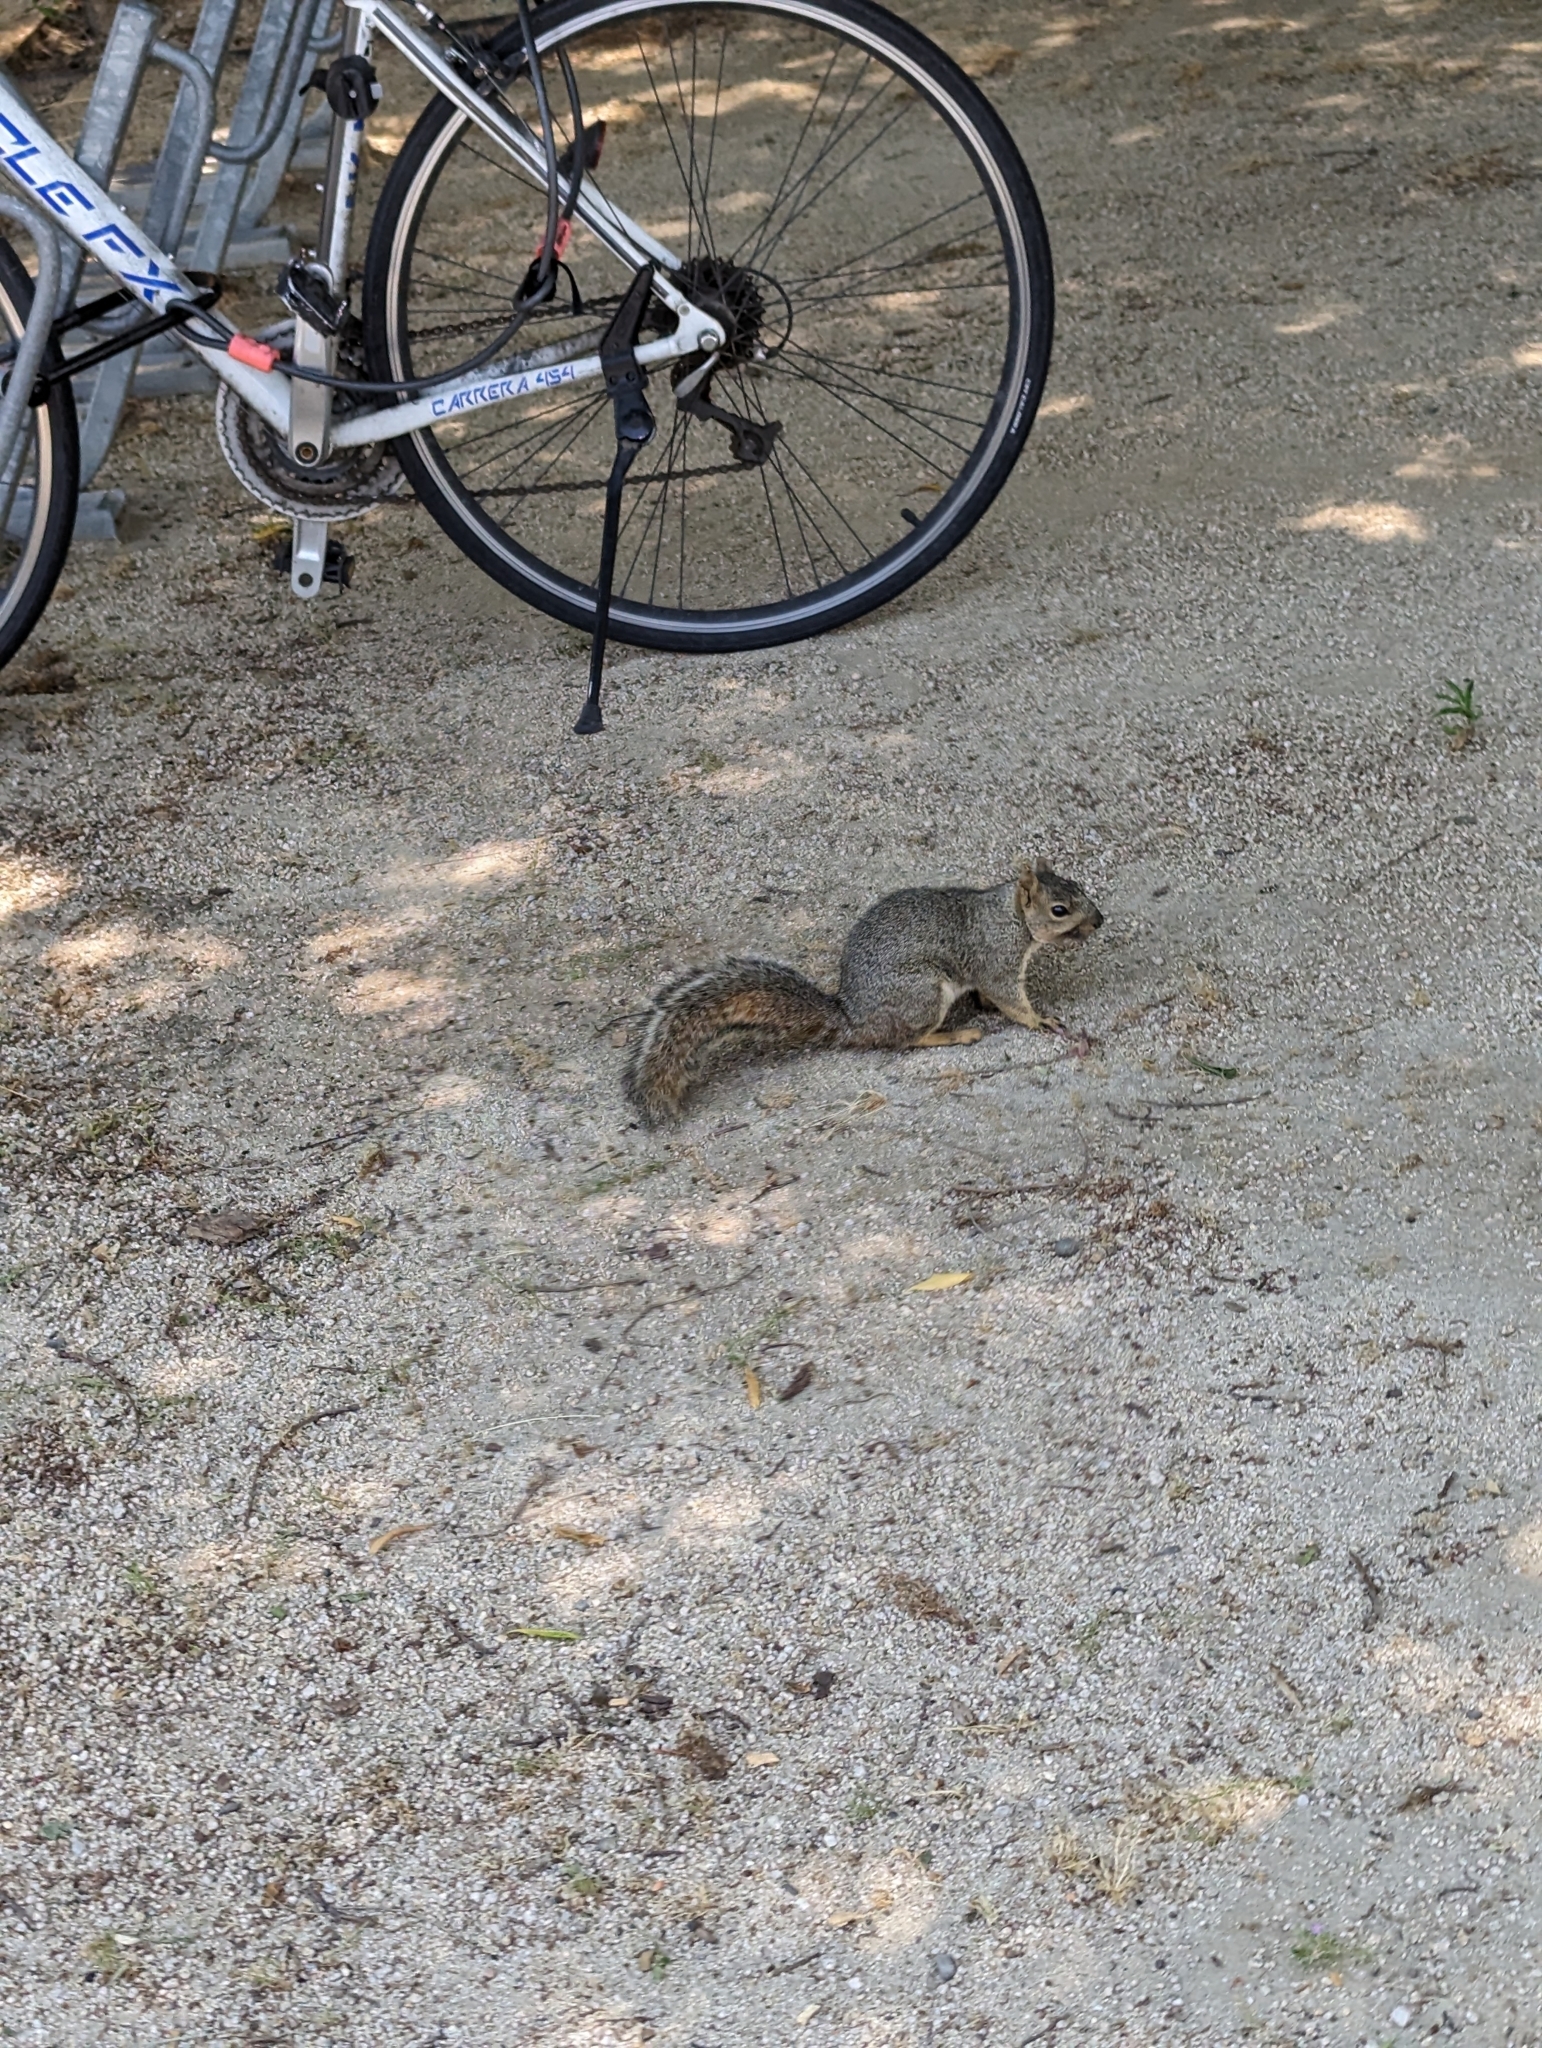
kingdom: Animalia
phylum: Chordata
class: Mammalia
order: Rodentia
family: Sciuridae
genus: Sciurus
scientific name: Sciurus niger
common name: Fox squirrel
